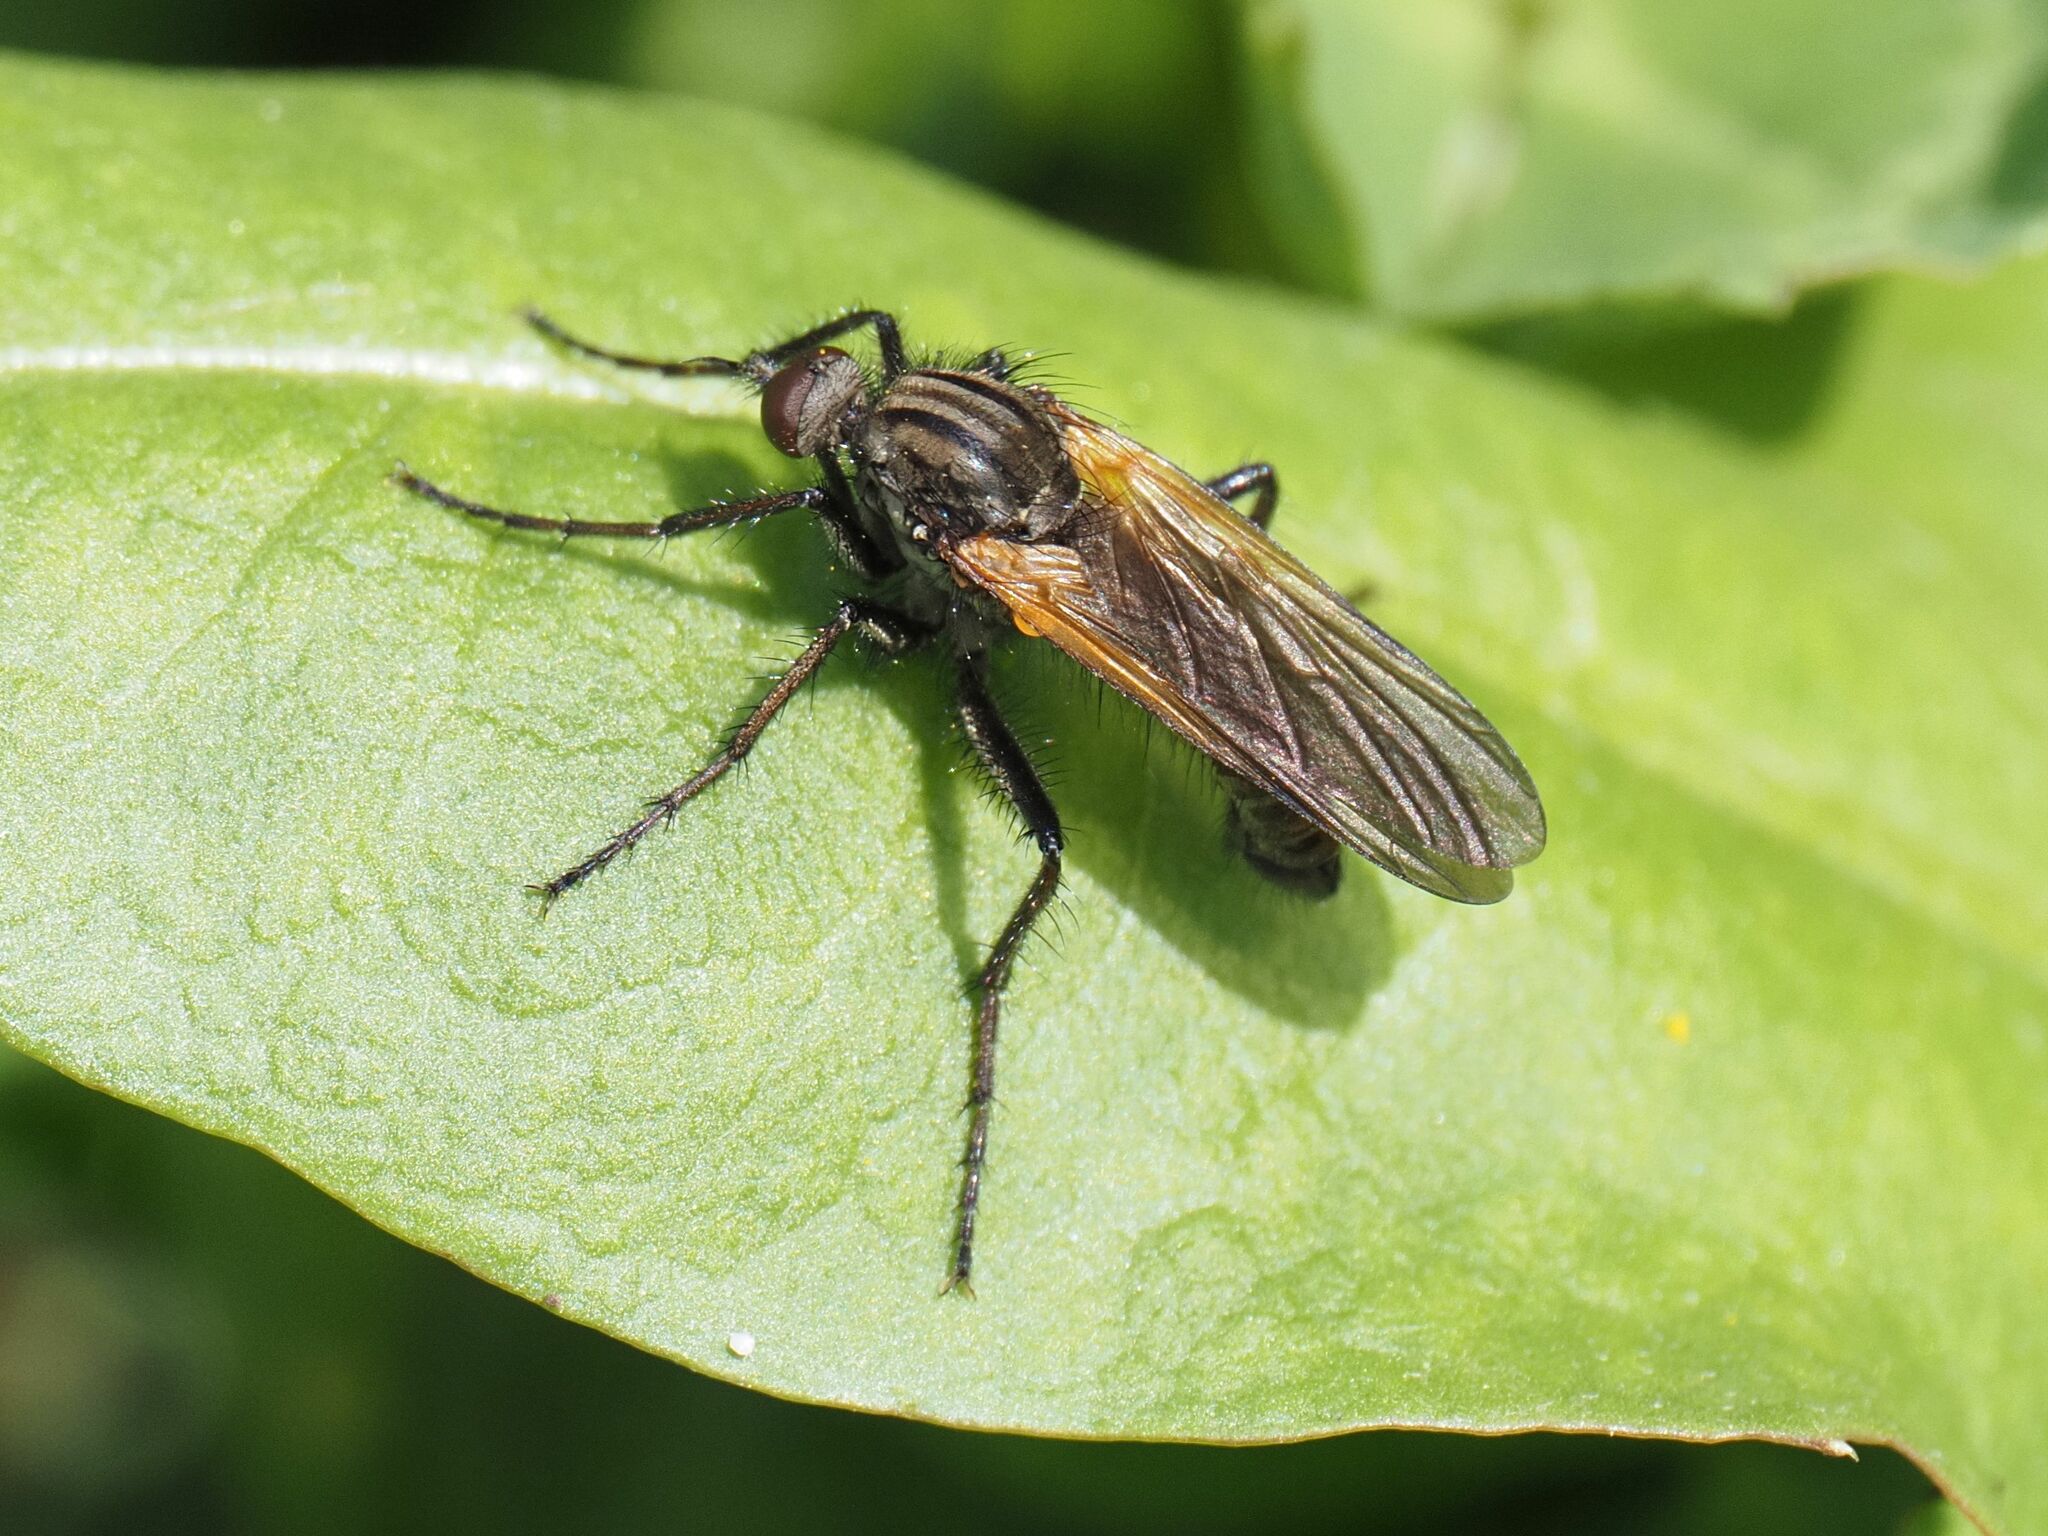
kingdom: Animalia
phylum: Arthropoda
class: Insecta
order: Diptera
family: Empididae
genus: Empis
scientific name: Empis tessellata
